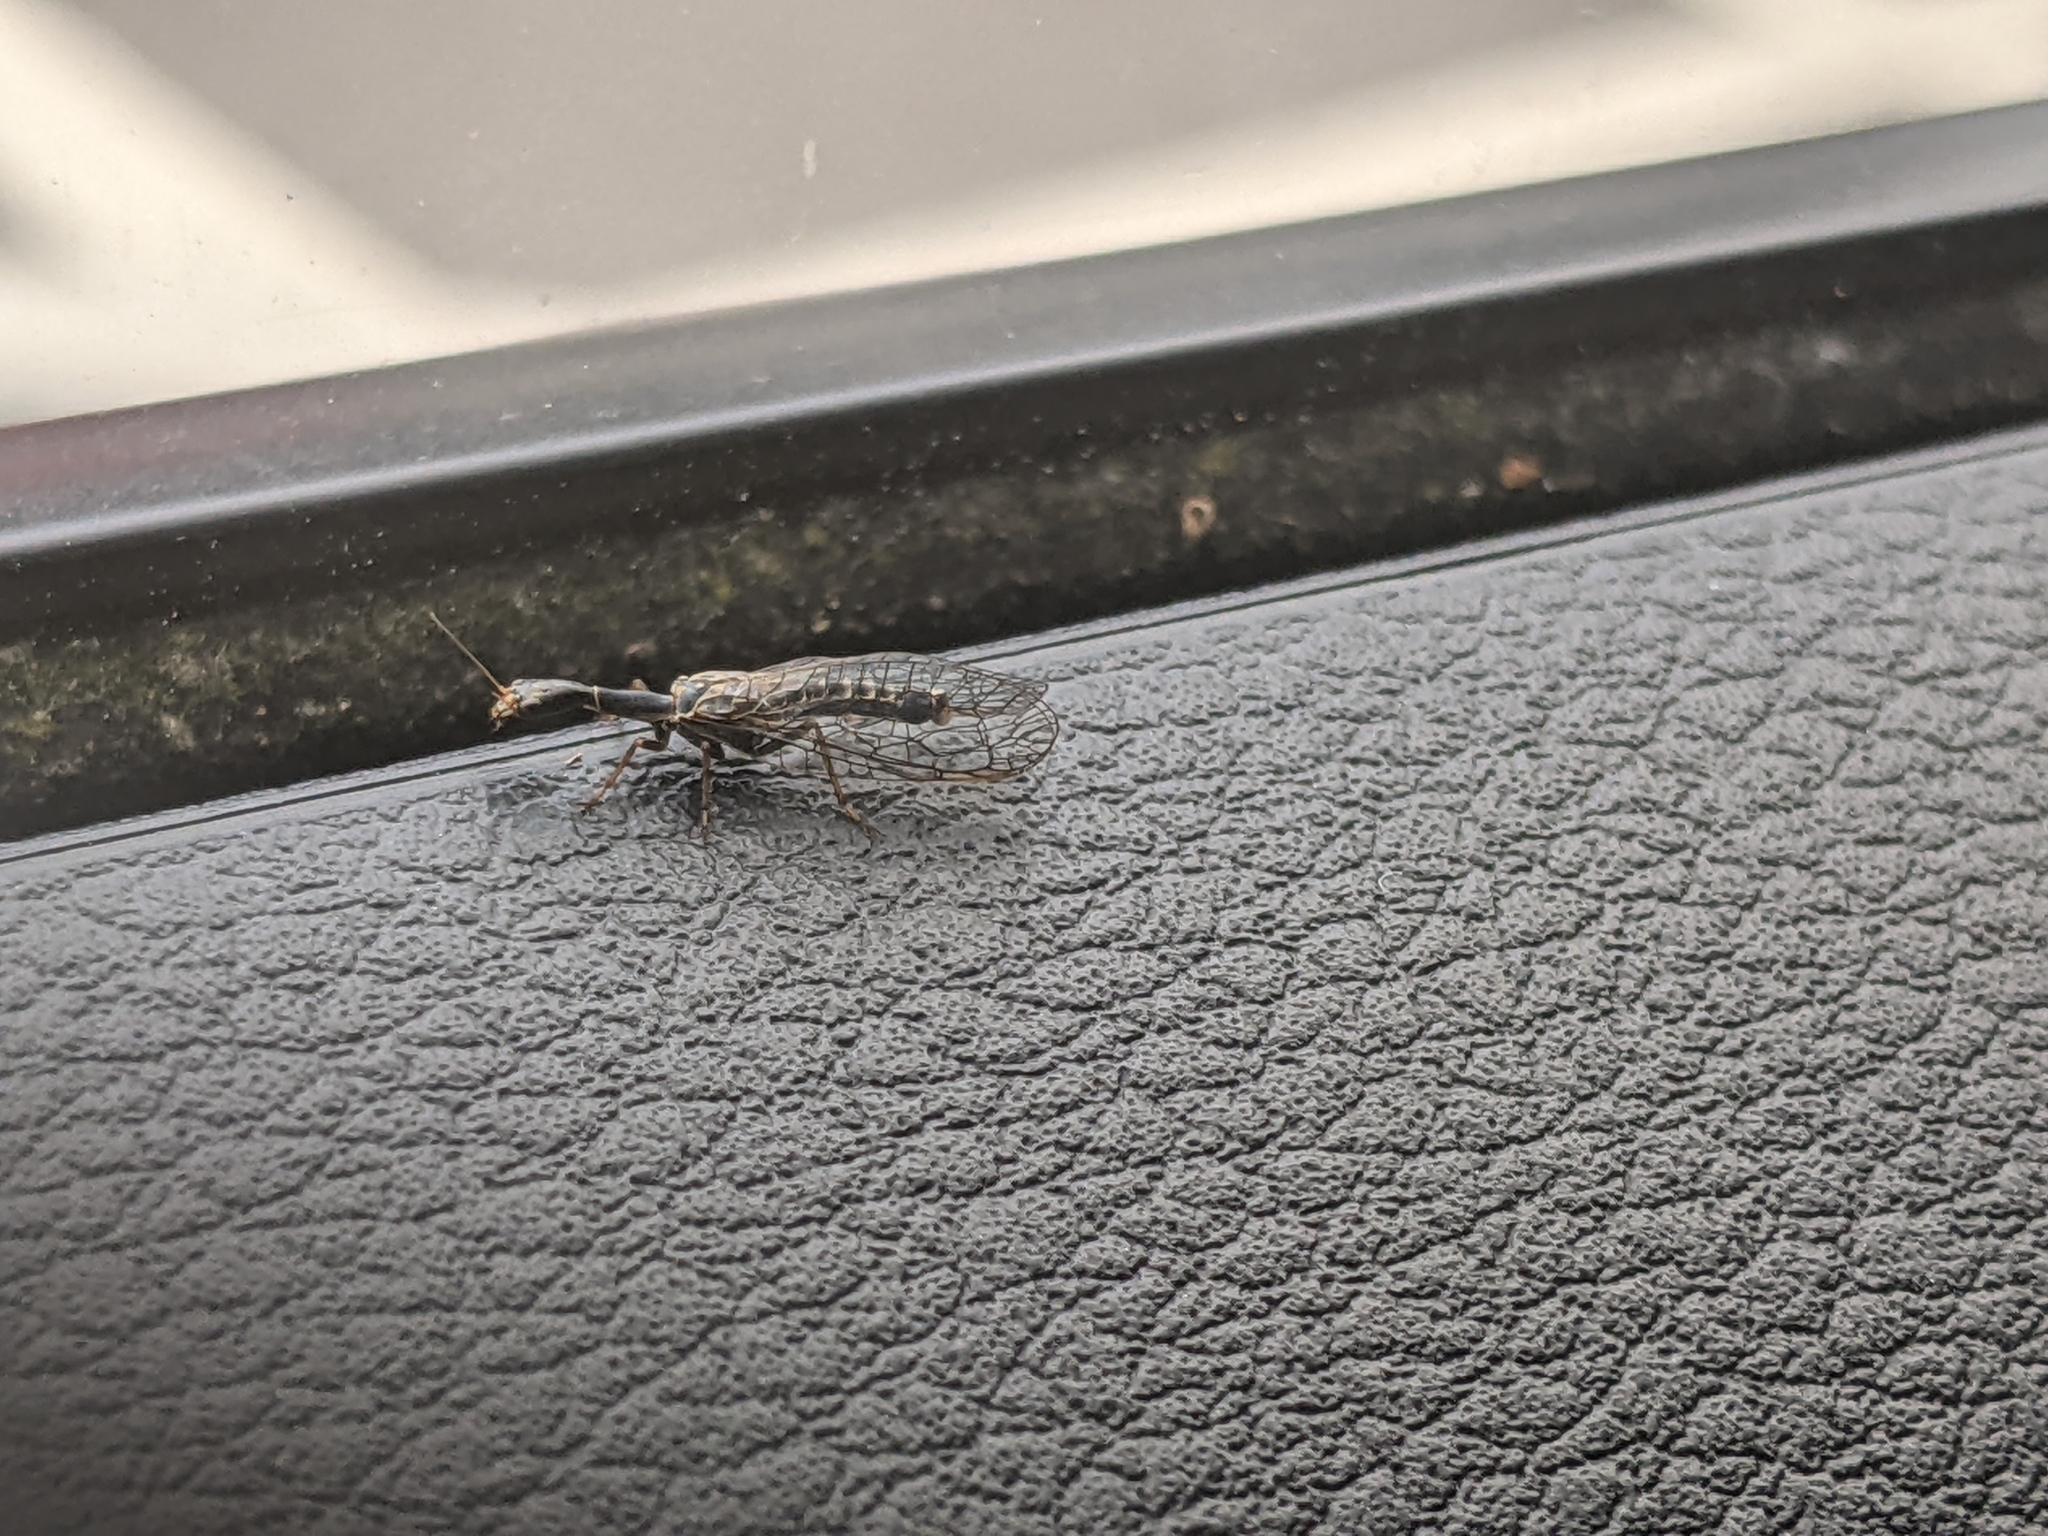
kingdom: Animalia
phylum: Arthropoda
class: Insecta
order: Raphidioptera
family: Raphidiidae
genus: Xanthostigma
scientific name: Xanthostigma xanthostigma
